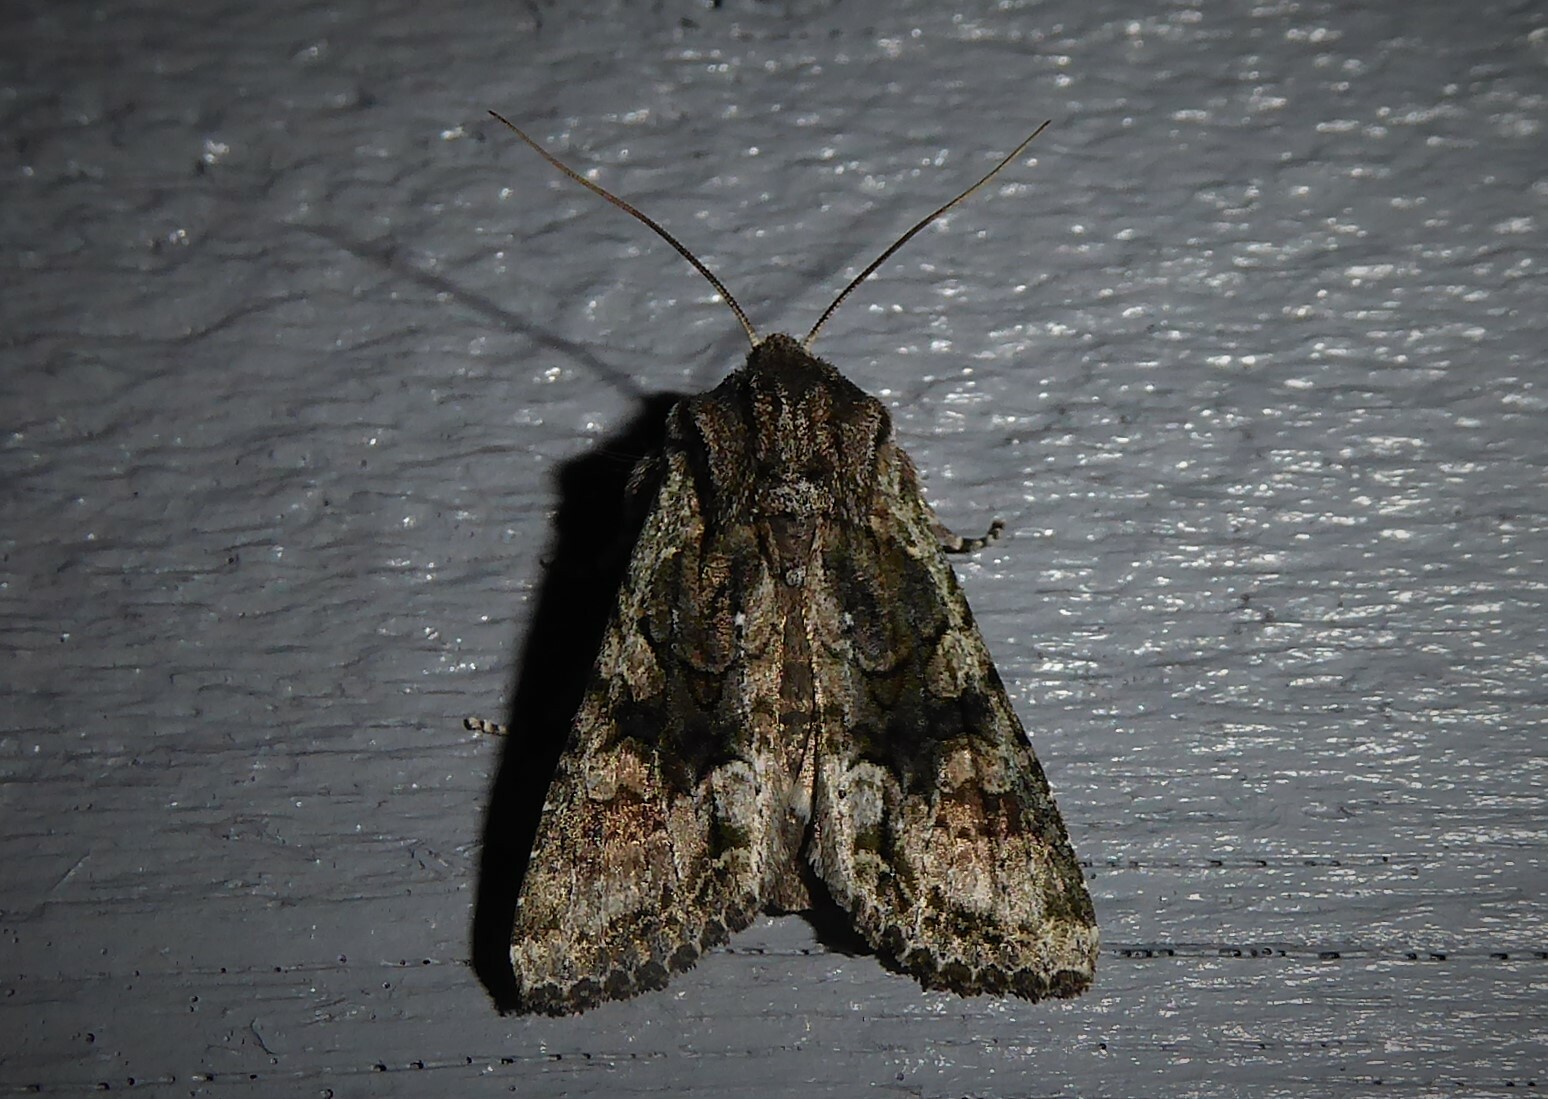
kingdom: Animalia
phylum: Arthropoda
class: Insecta
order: Lepidoptera
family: Noctuidae
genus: Ichneutica
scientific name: Ichneutica mutans
